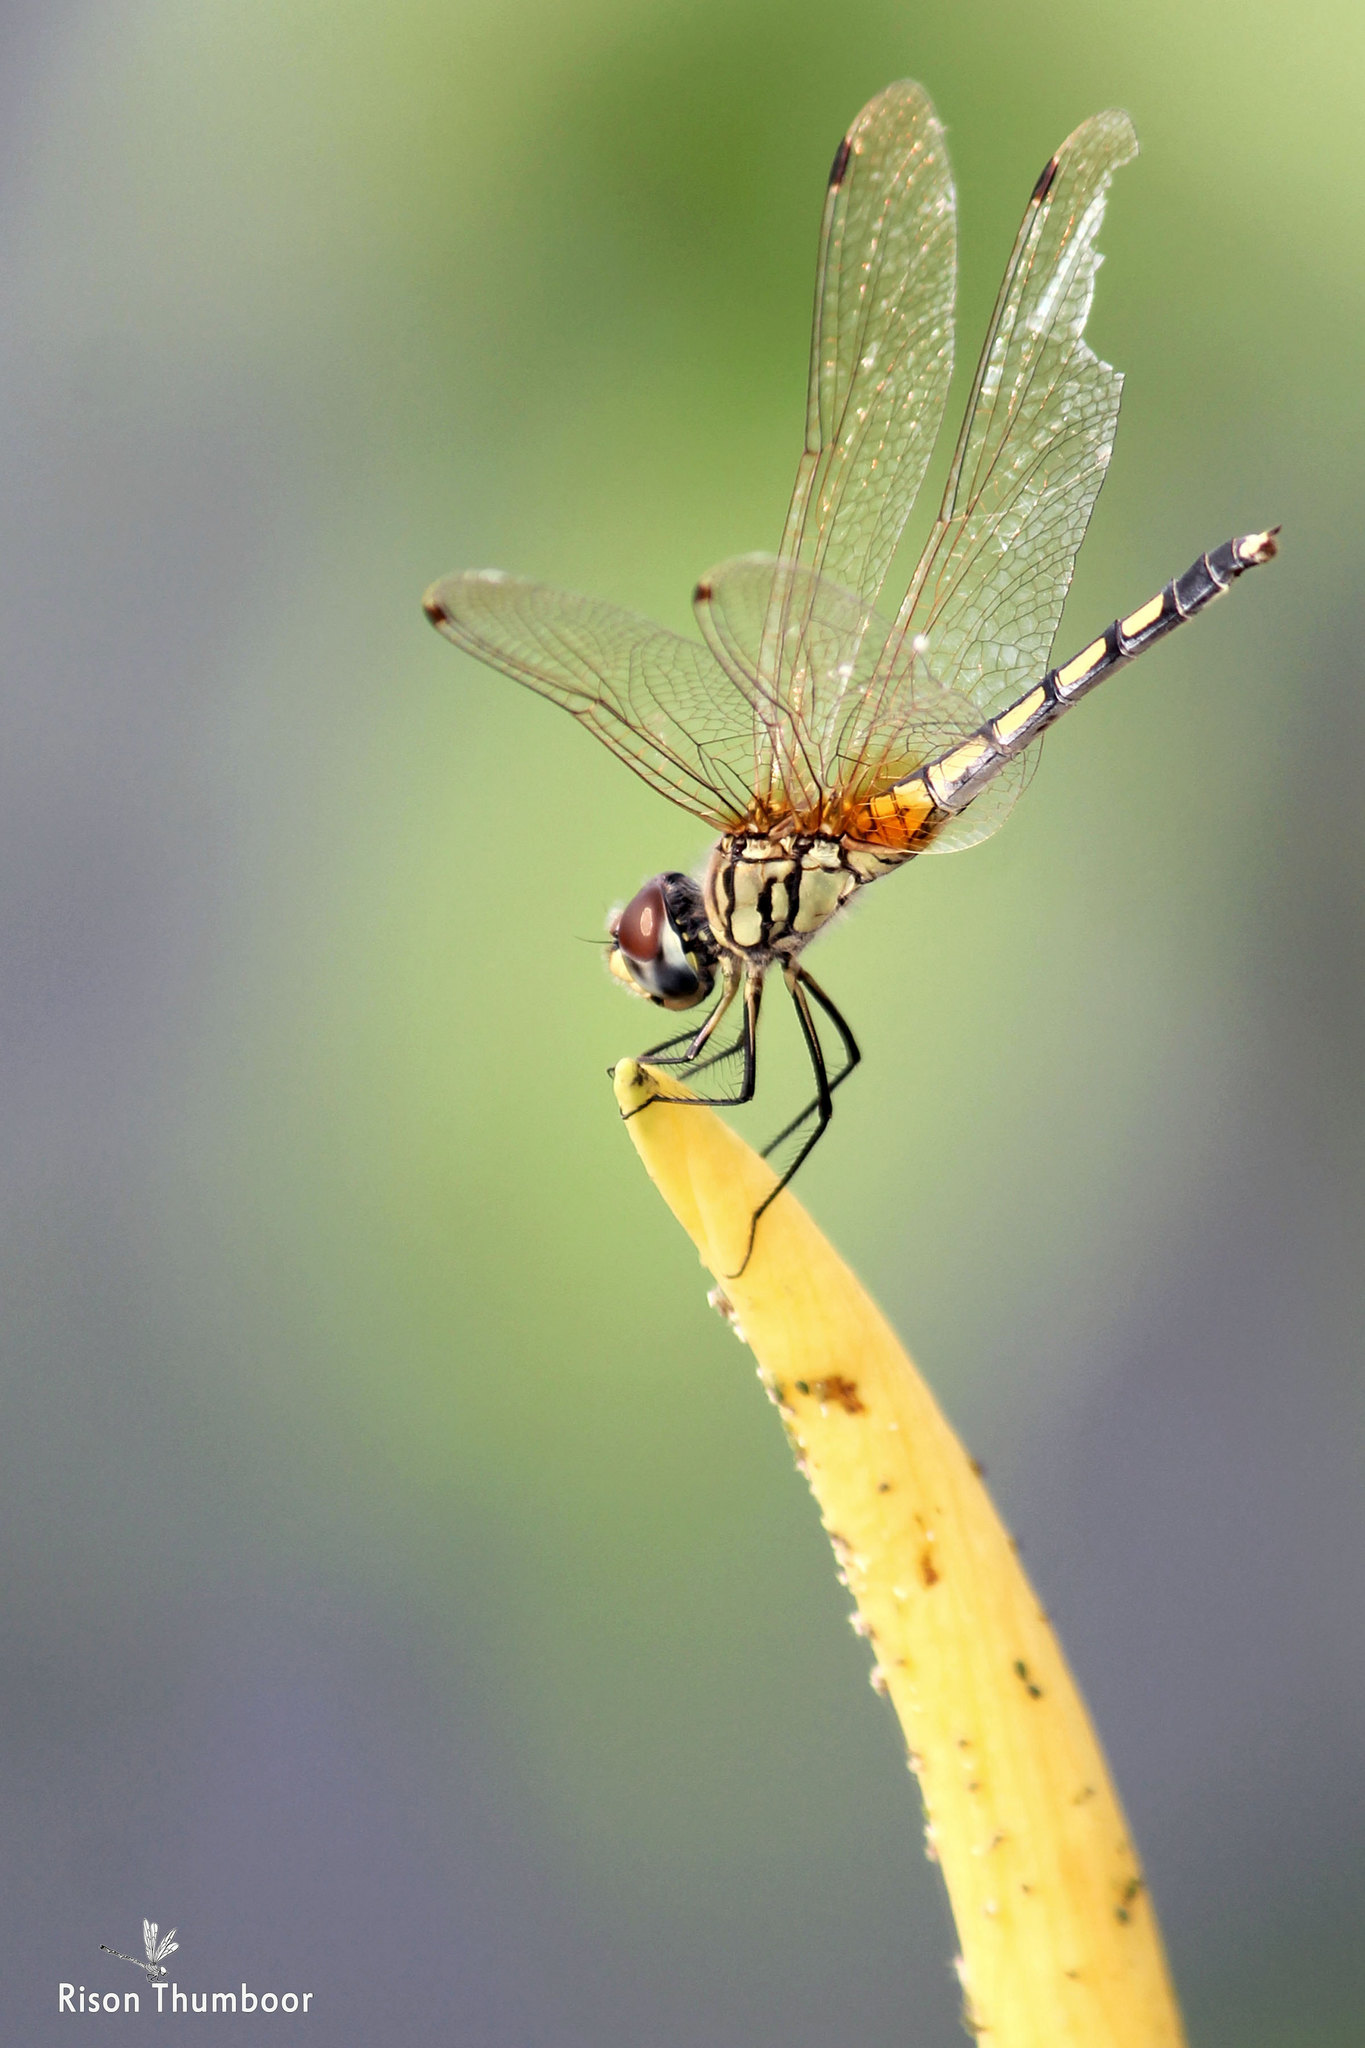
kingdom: Animalia
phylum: Arthropoda
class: Insecta
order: Odonata
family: Libellulidae
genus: Trithemis
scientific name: Trithemis pallidinervis
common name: Dancing dropwing
